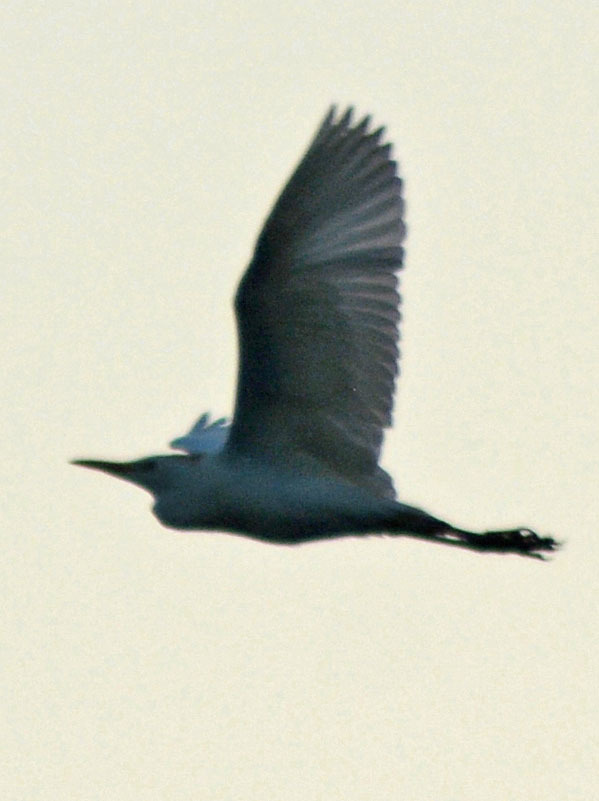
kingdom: Animalia
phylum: Chordata
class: Aves
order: Pelecaniformes
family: Ardeidae
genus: Bubulcus
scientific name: Bubulcus ibis
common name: Cattle egret
